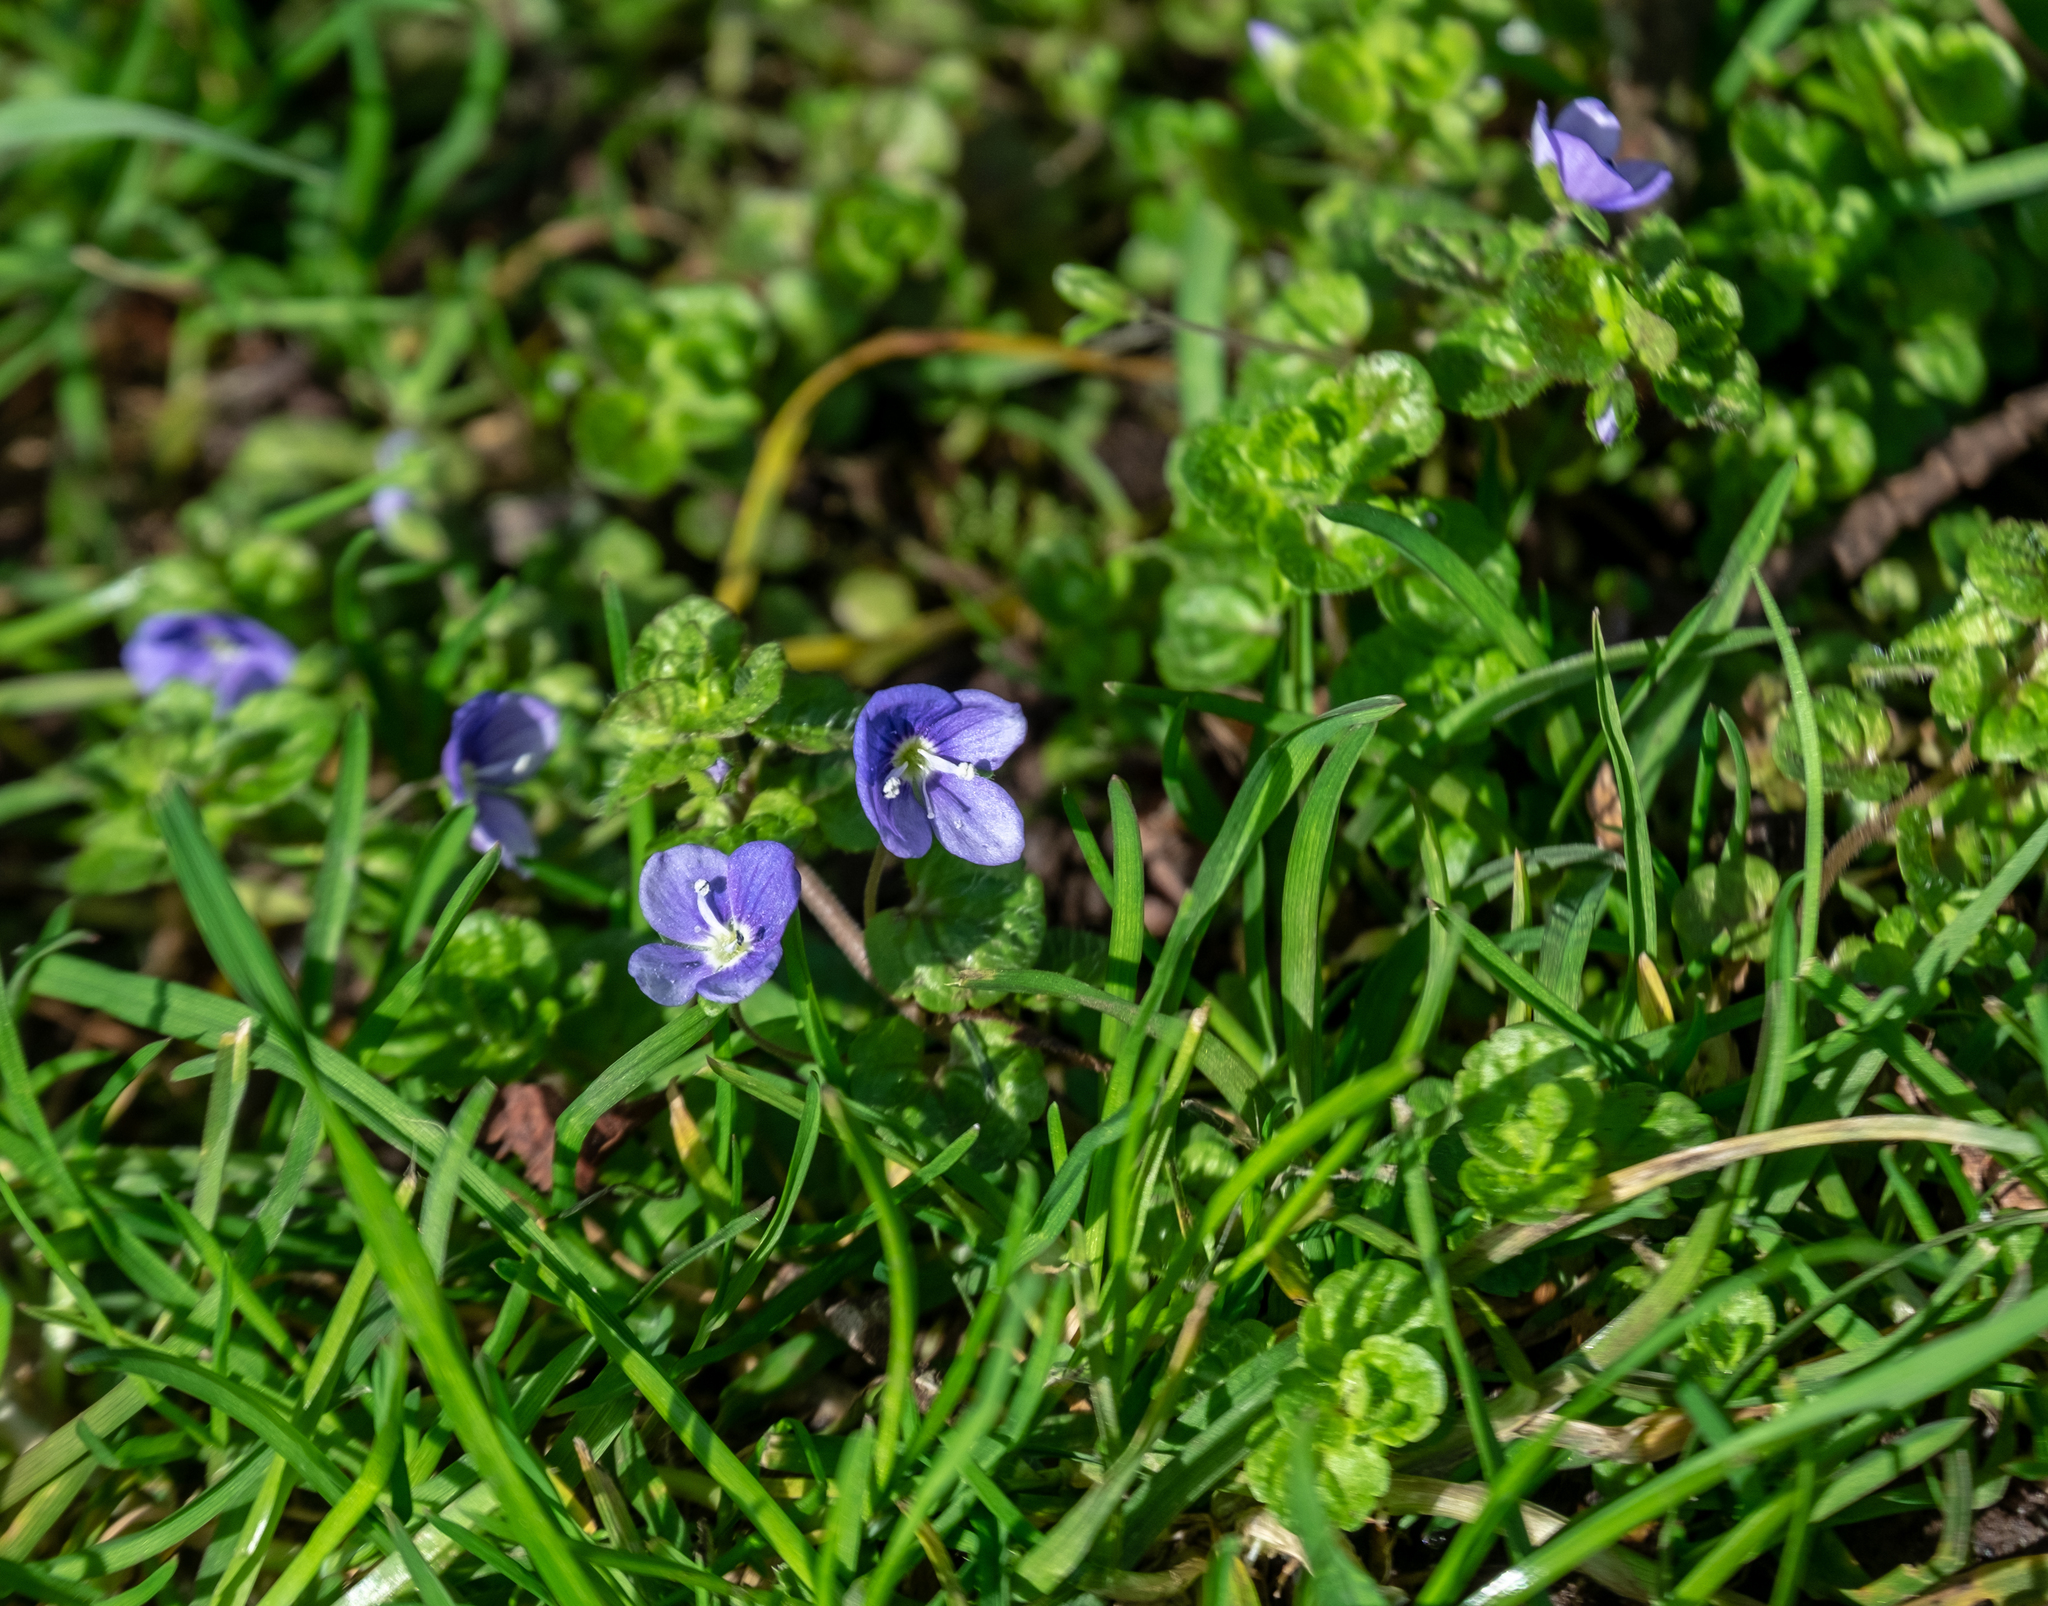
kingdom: Plantae
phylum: Tracheophyta
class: Magnoliopsida
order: Lamiales
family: Plantaginaceae
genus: Veronica
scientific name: Veronica filiformis
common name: Slender speedwell
